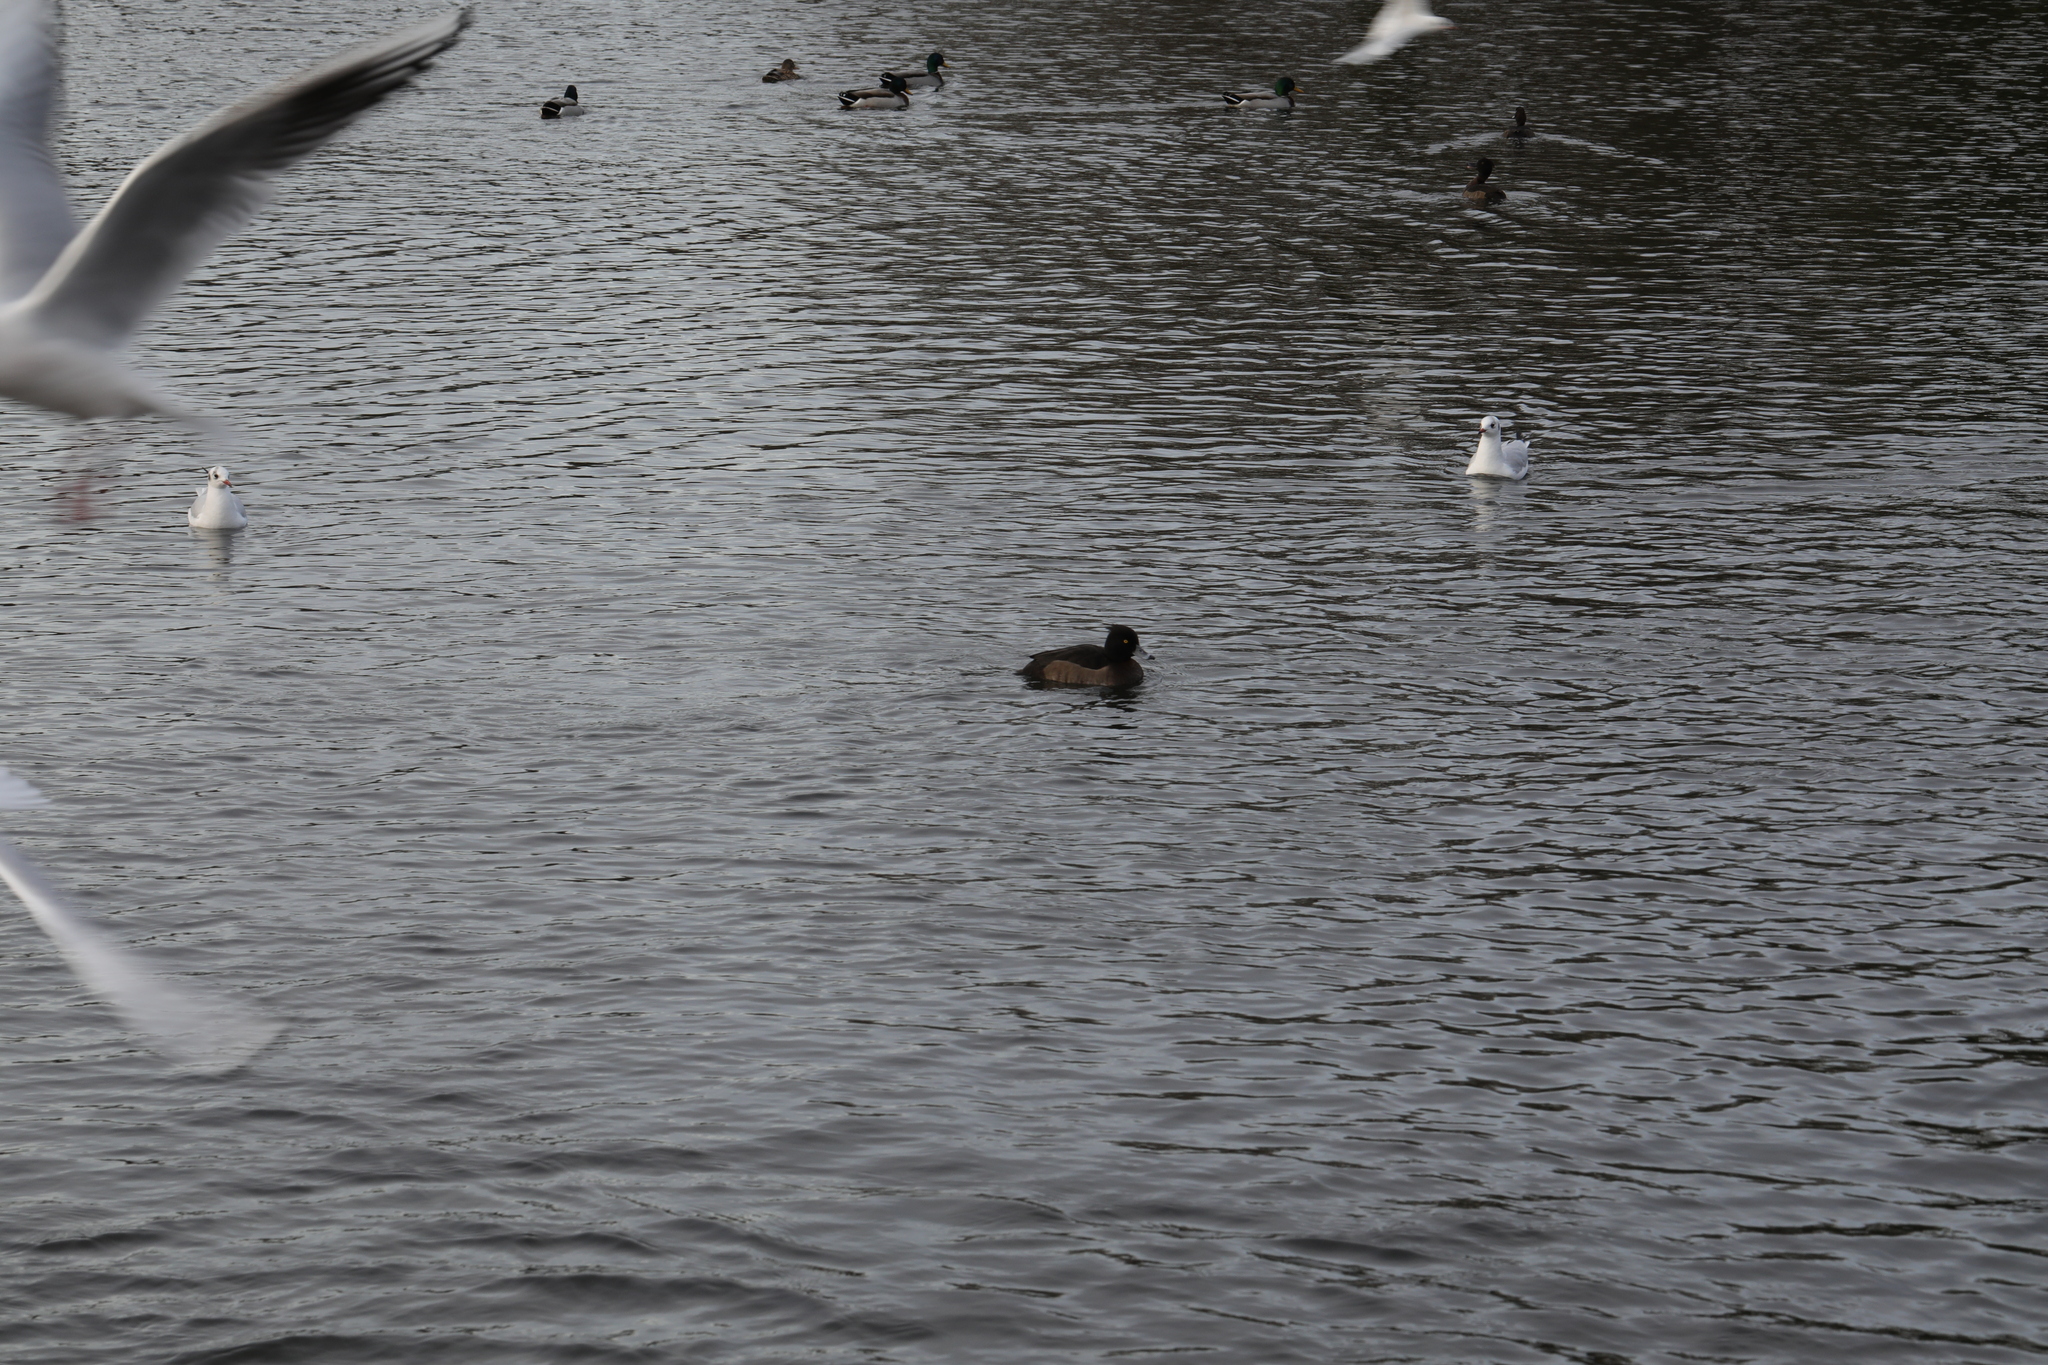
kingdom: Animalia
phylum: Chordata
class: Aves
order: Anseriformes
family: Anatidae
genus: Aythya
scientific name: Aythya fuligula
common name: Tufted duck
